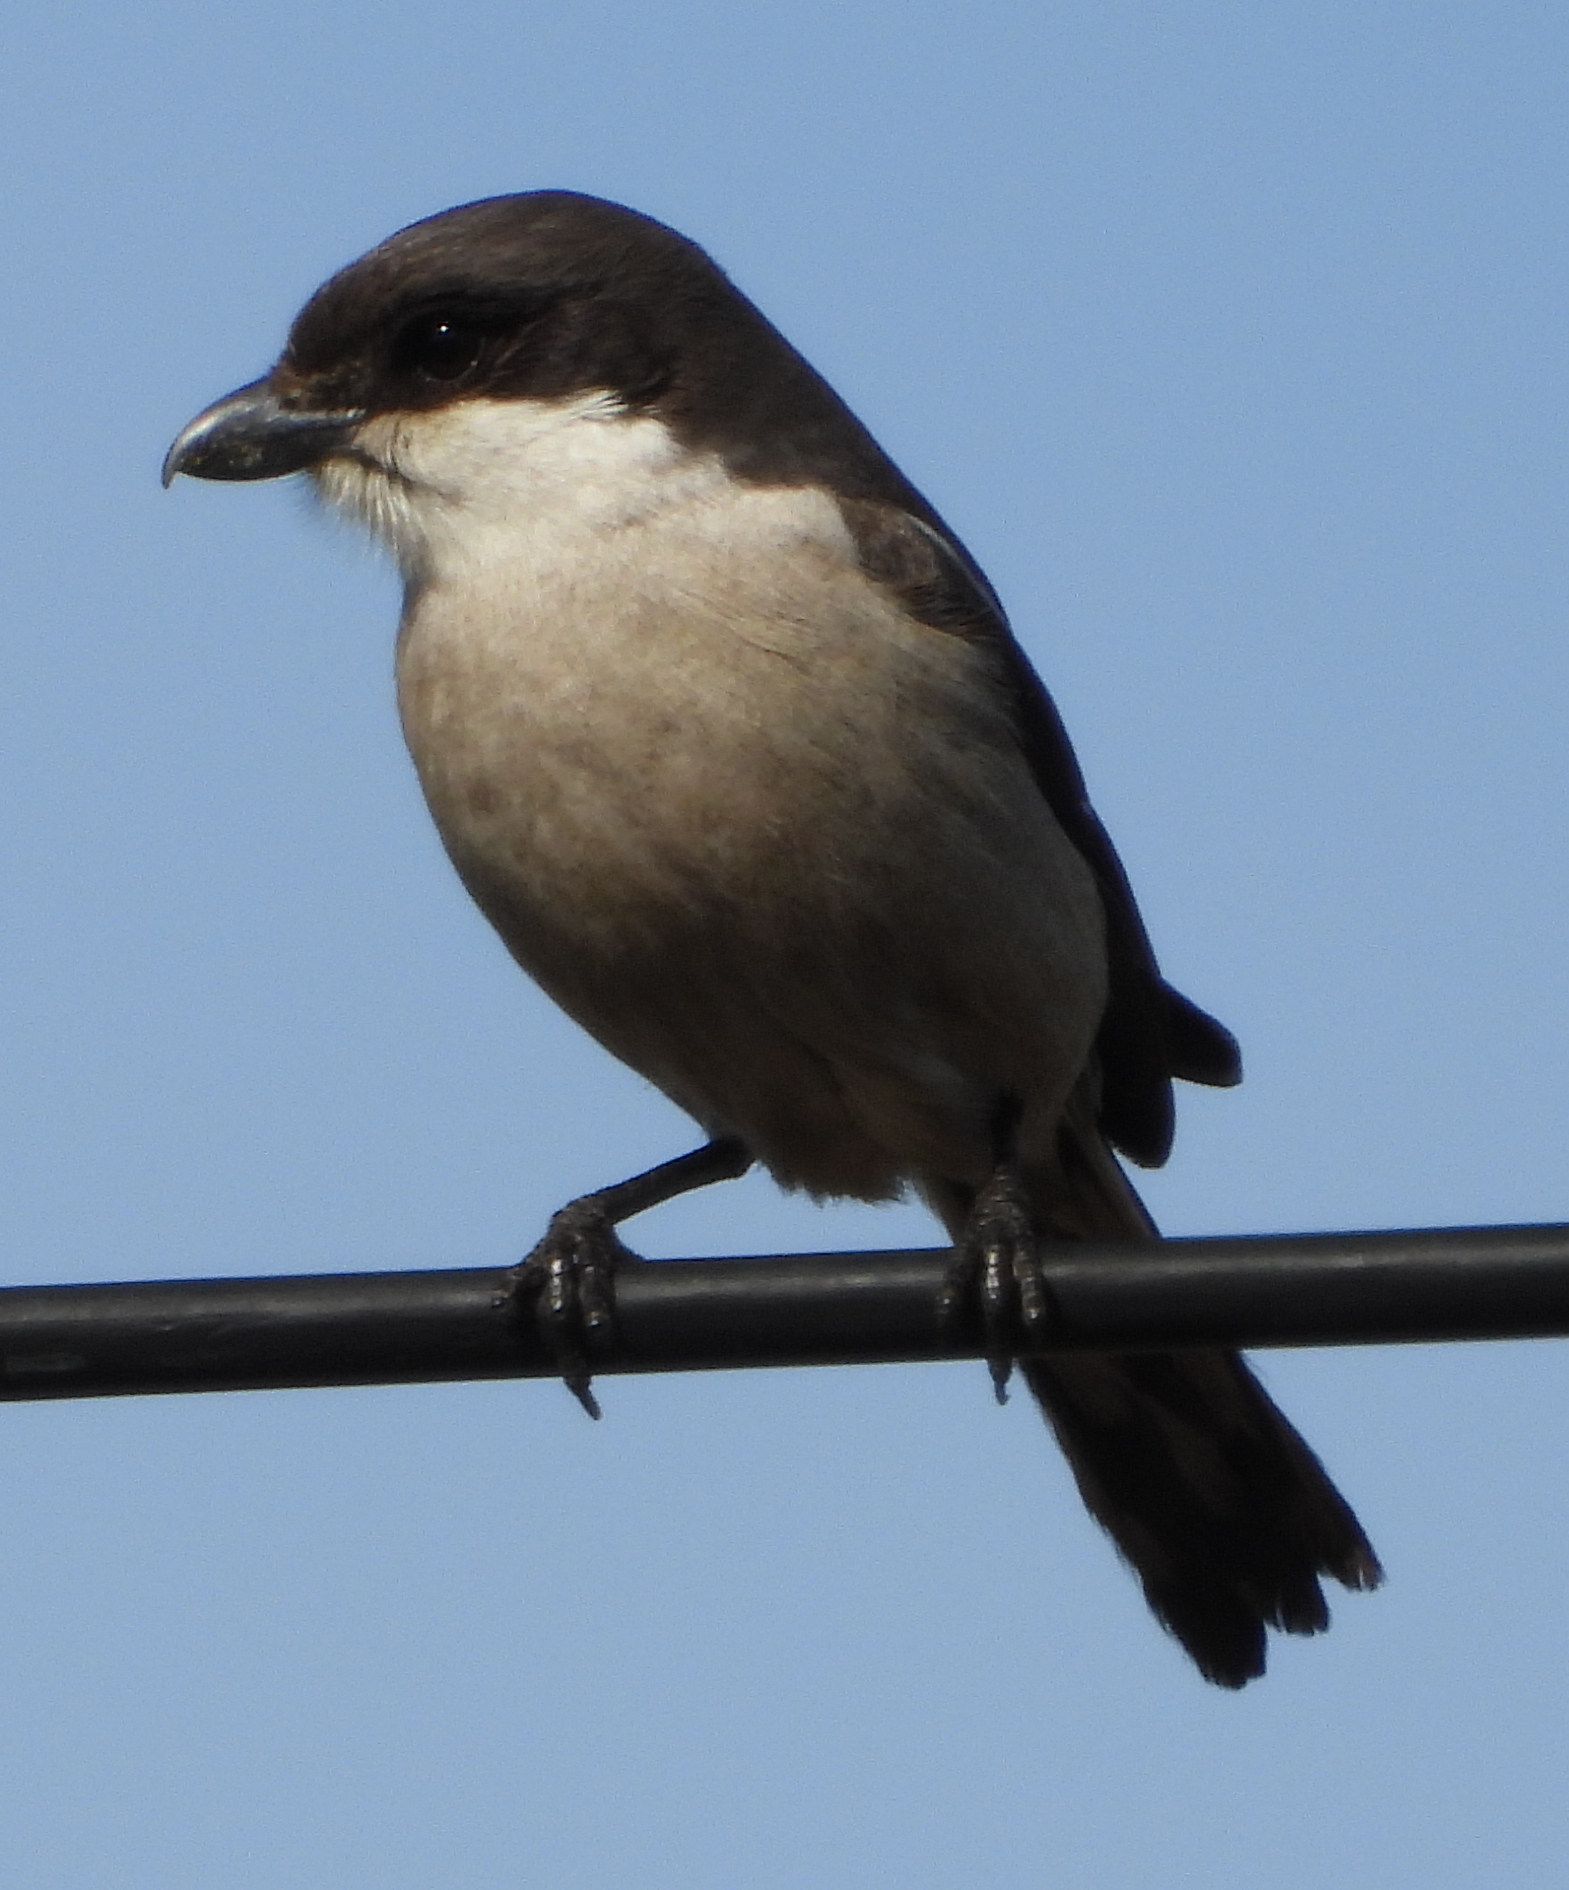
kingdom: Animalia
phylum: Chordata
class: Aves
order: Passeriformes
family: Laniidae
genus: Lanius
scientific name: Lanius collaris
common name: Southern fiscal
